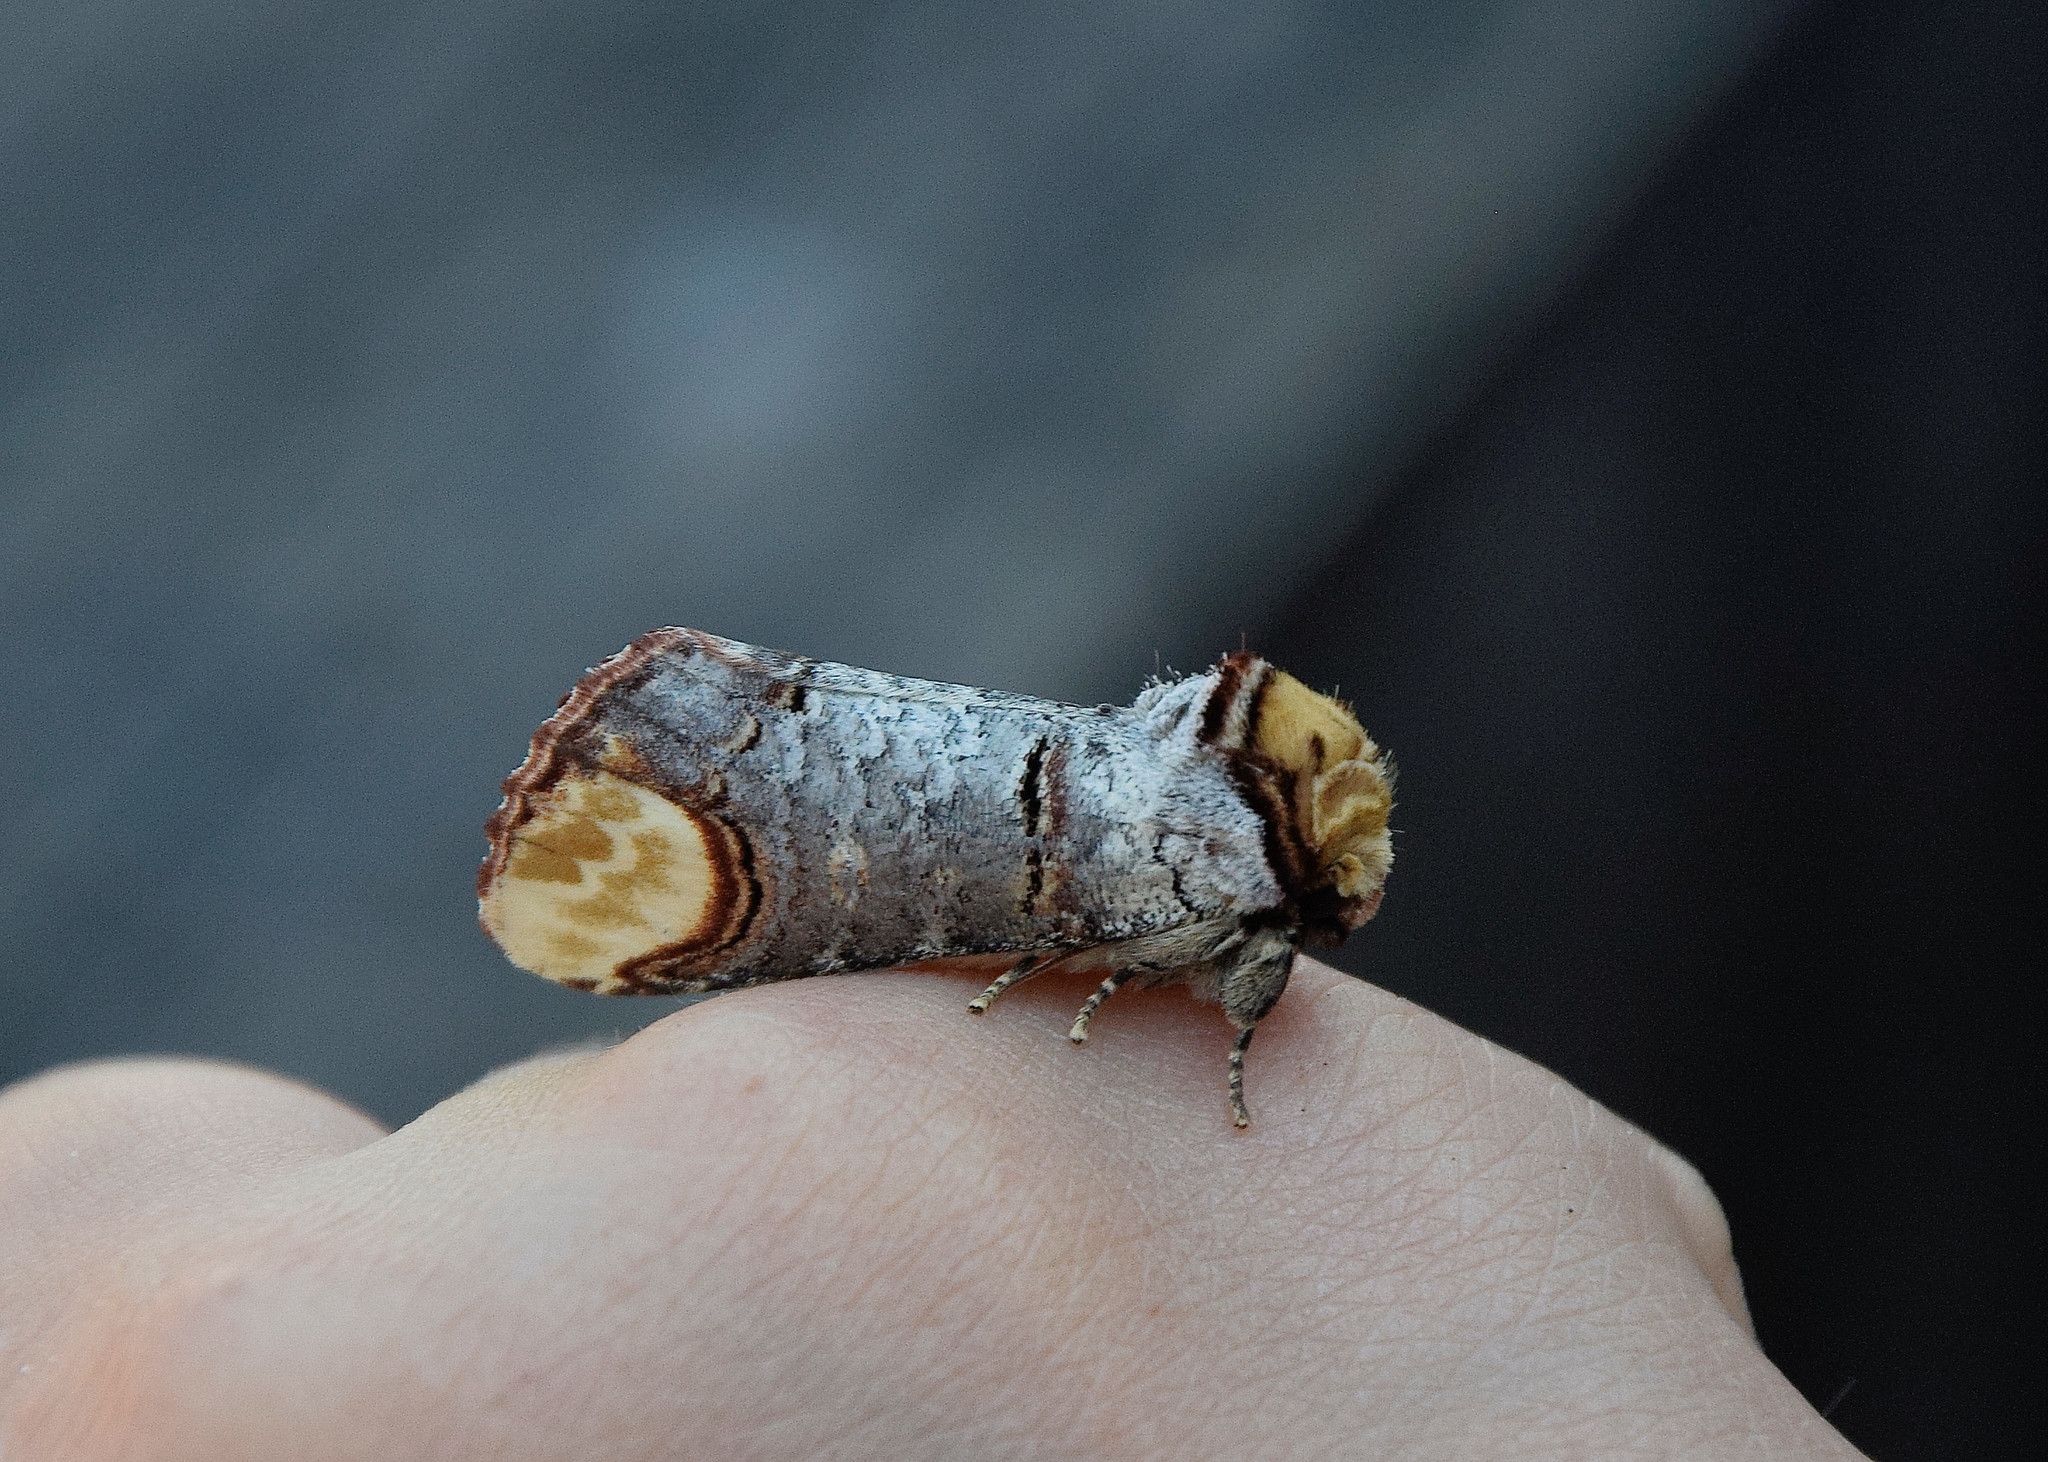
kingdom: Animalia
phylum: Arthropoda
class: Insecta
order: Lepidoptera
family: Notodontidae
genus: Phalera
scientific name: Phalera bucephala
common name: Buff-tip
